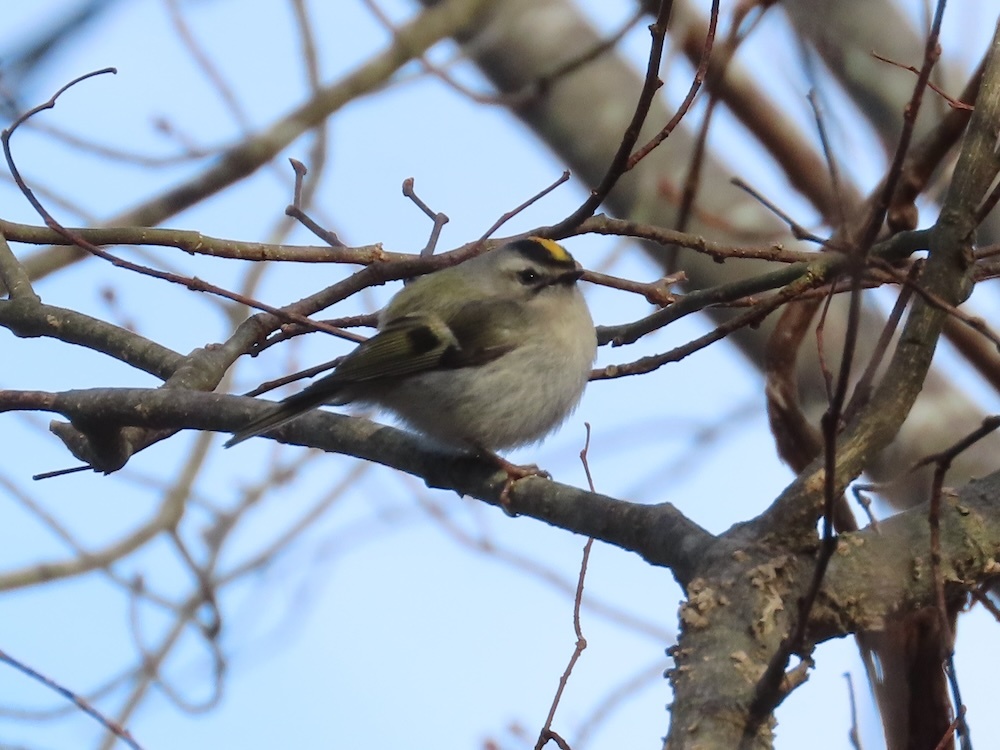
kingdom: Animalia
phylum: Chordata
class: Aves
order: Passeriformes
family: Regulidae
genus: Regulus
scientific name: Regulus satrapa
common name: Golden-crowned kinglet
